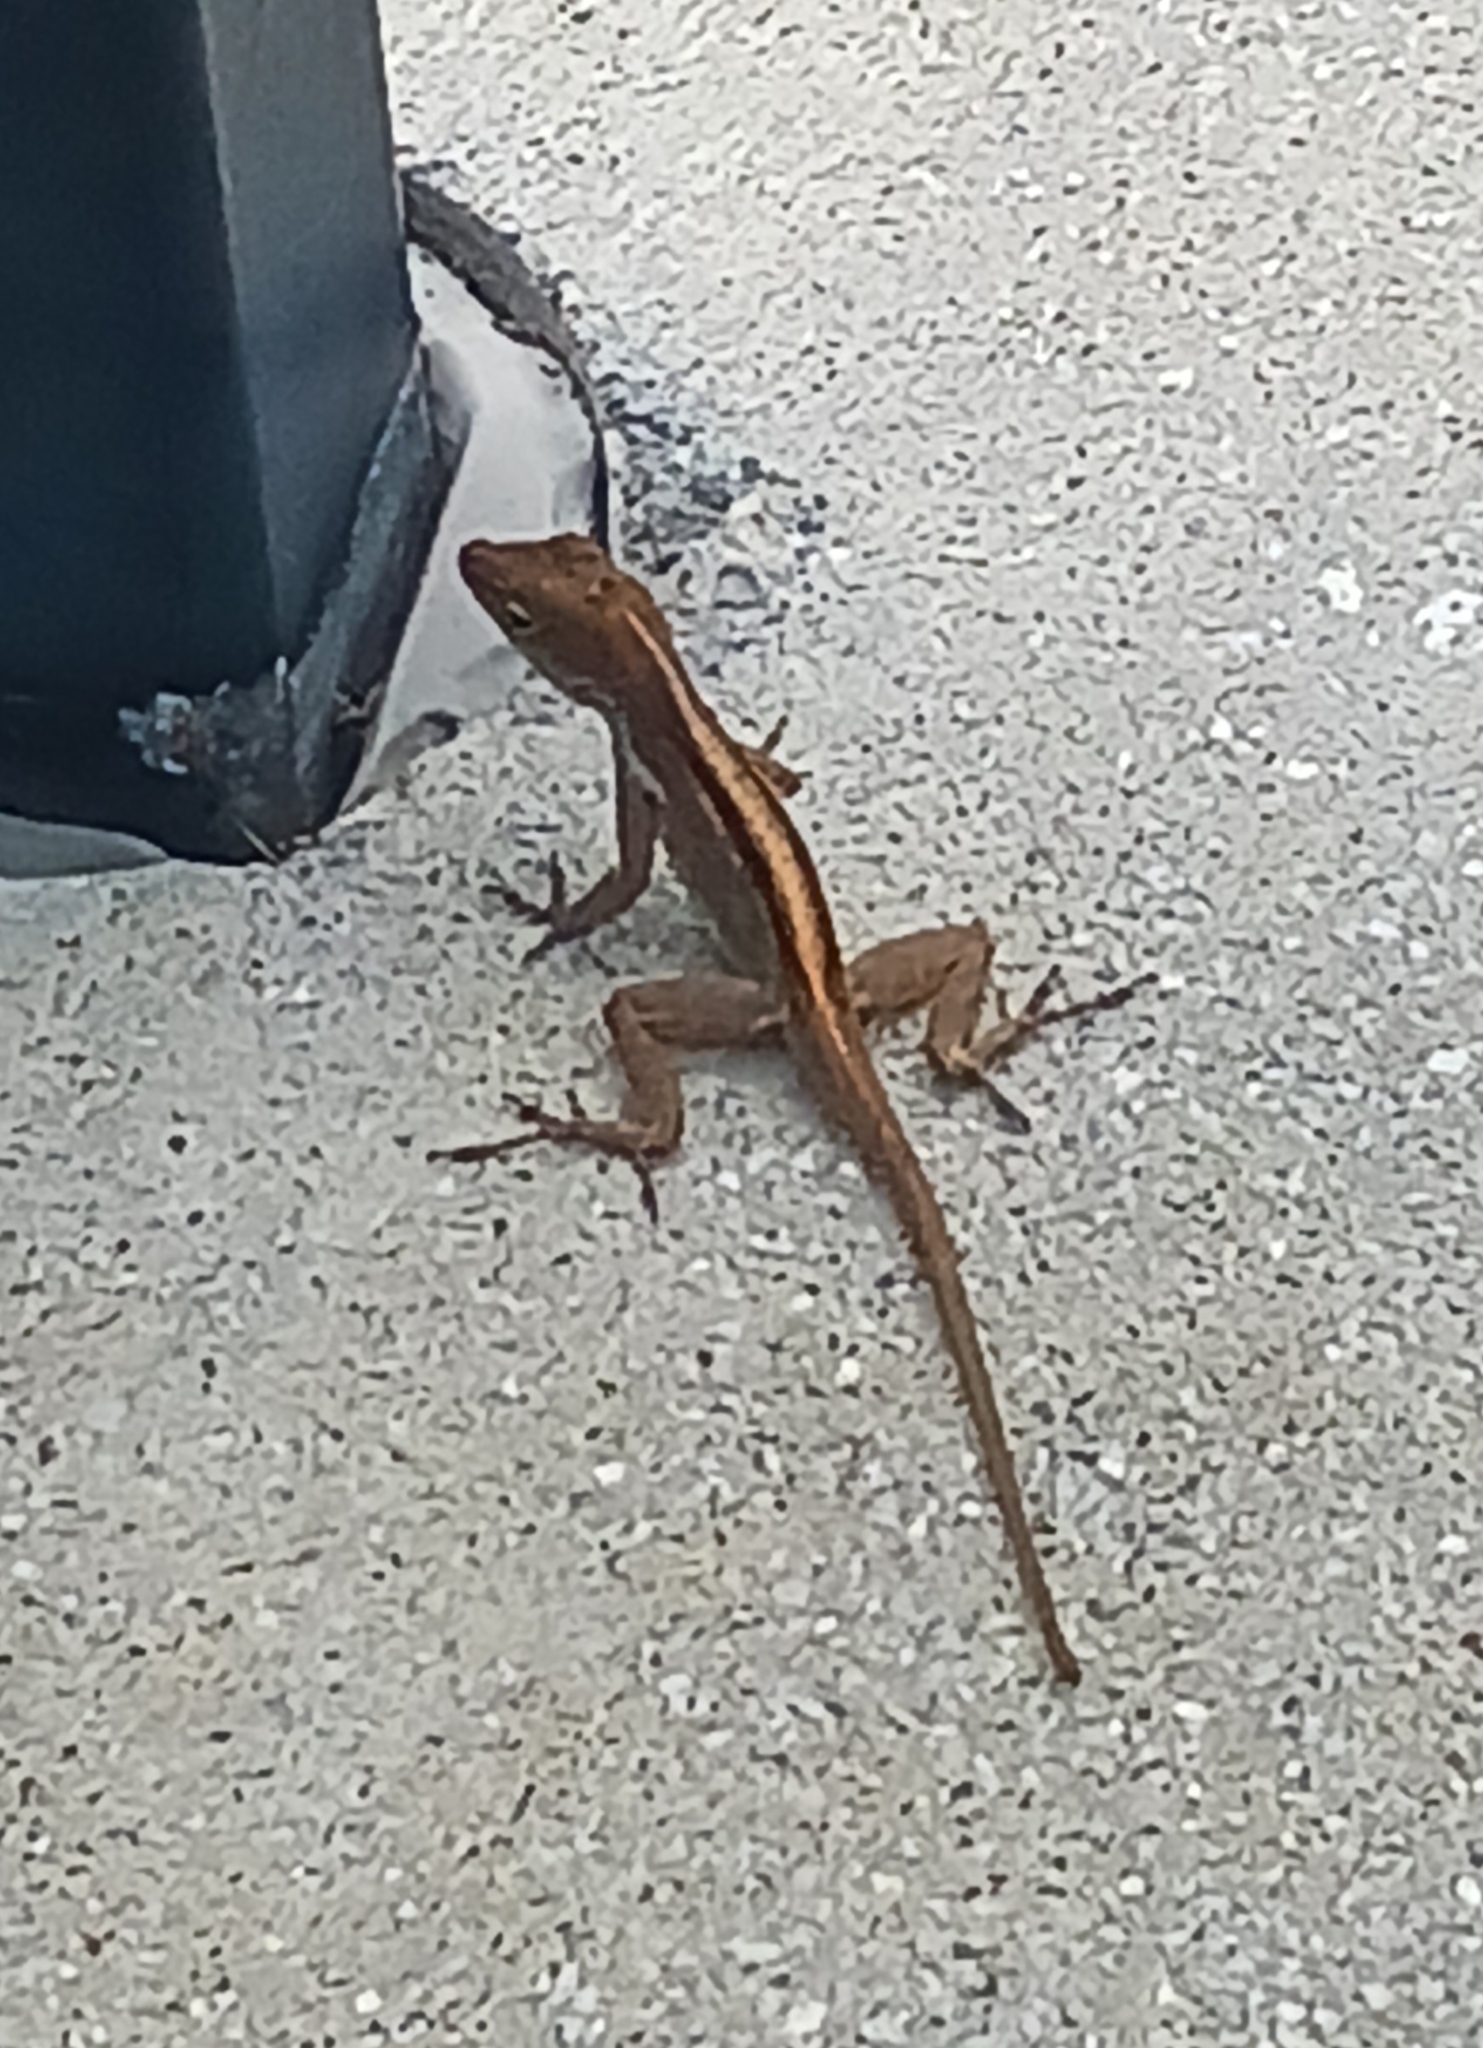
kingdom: Animalia
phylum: Chordata
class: Squamata
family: Dactyloidae
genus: Anolis
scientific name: Anolis sagrei
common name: Brown anole
